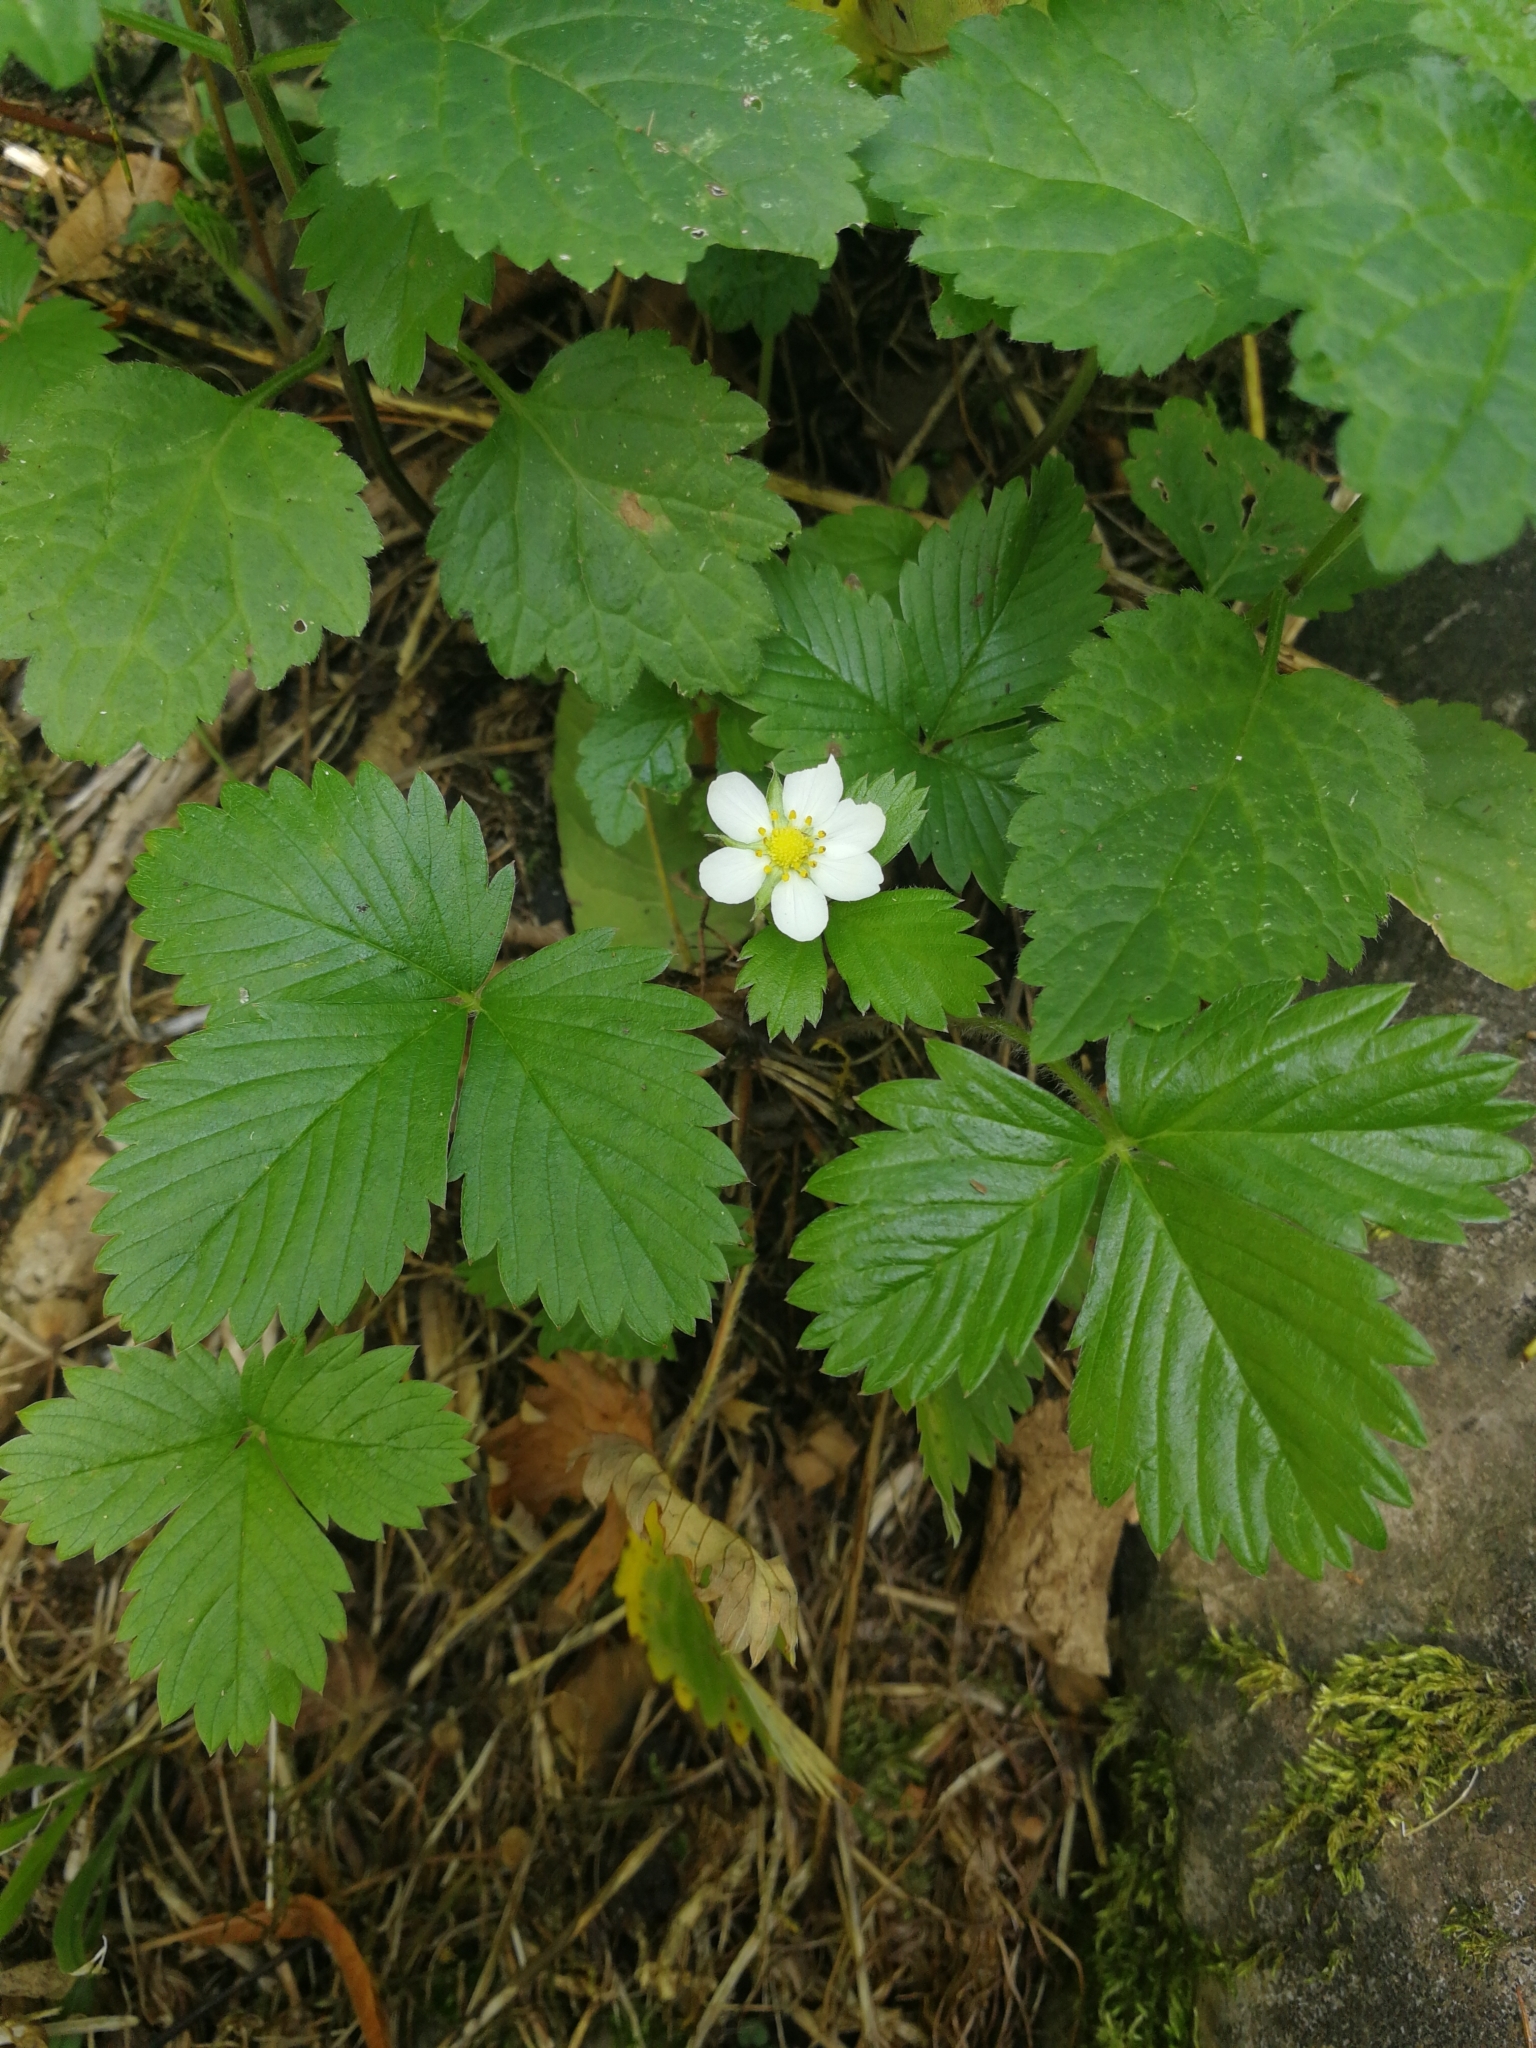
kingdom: Plantae
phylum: Tracheophyta
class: Magnoliopsida
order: Rosales
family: Rosaceae
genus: Fragaria
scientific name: Fragaria vesca
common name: Wild strawberry
